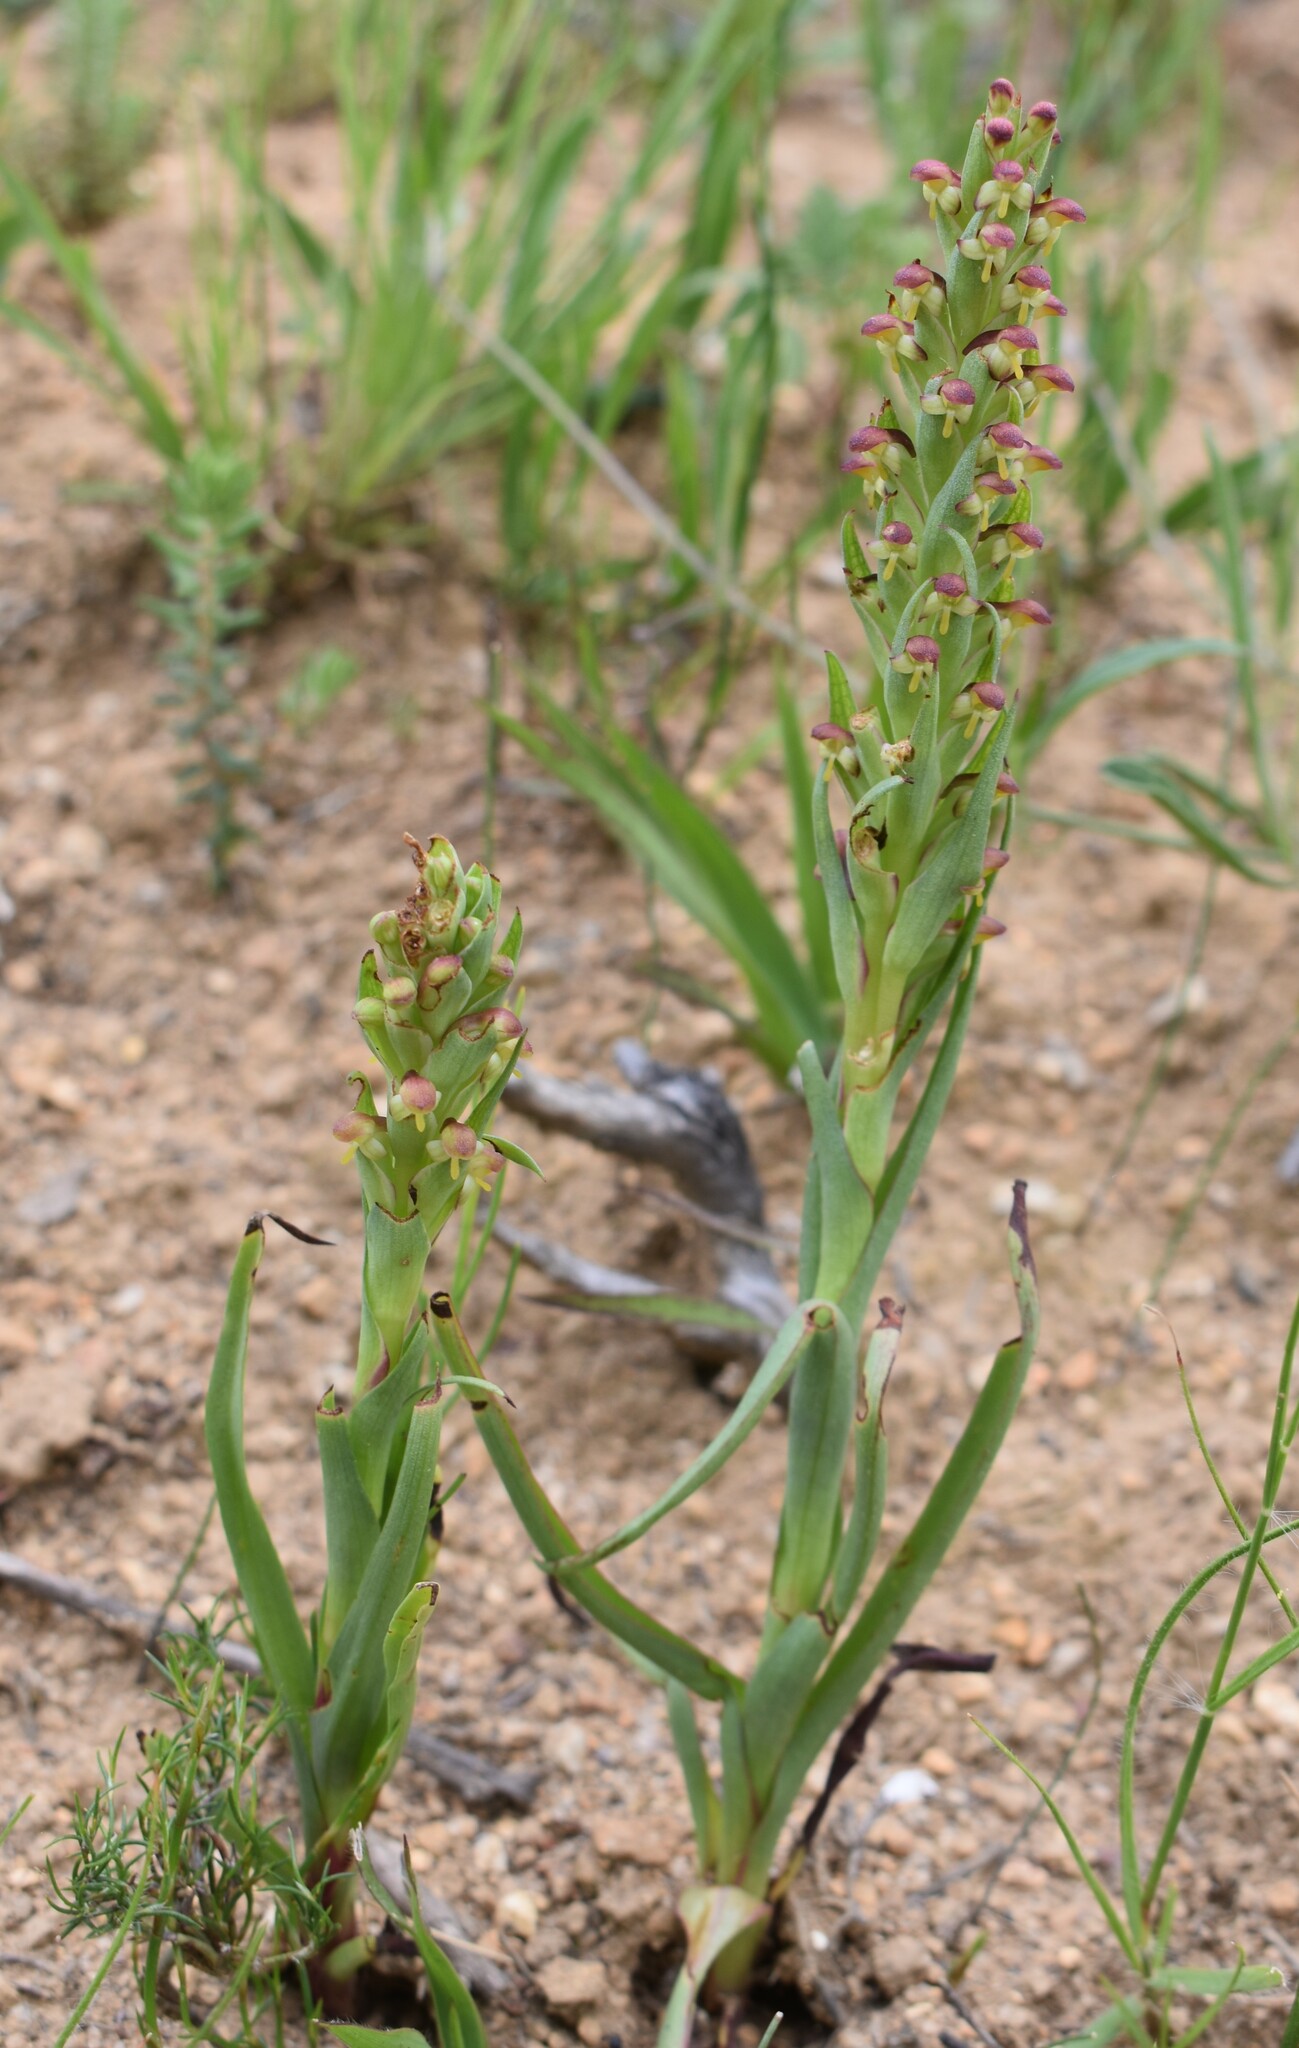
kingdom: Plantae
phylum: Tracheophyta
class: Liliopsida
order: Asparagales
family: Orchidaceae
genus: Disa
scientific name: Disa bracteata
